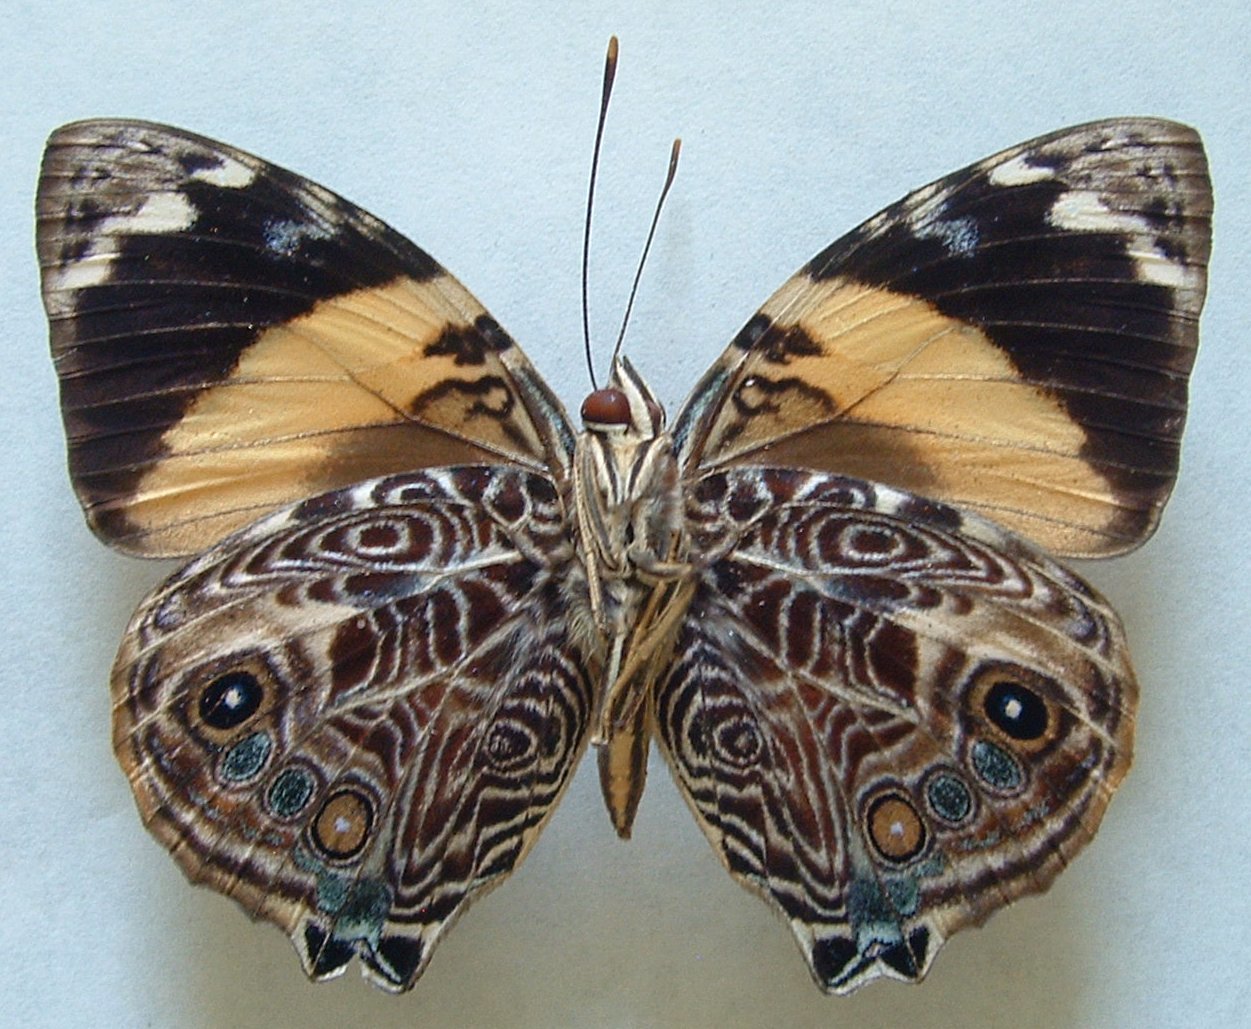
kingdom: Animalia
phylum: Arthropoda
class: Insecta
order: Lepidoptera
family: Nymphalidae
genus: Smyrna
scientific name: Smyrna blomfildia
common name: Blomfild's beauty
